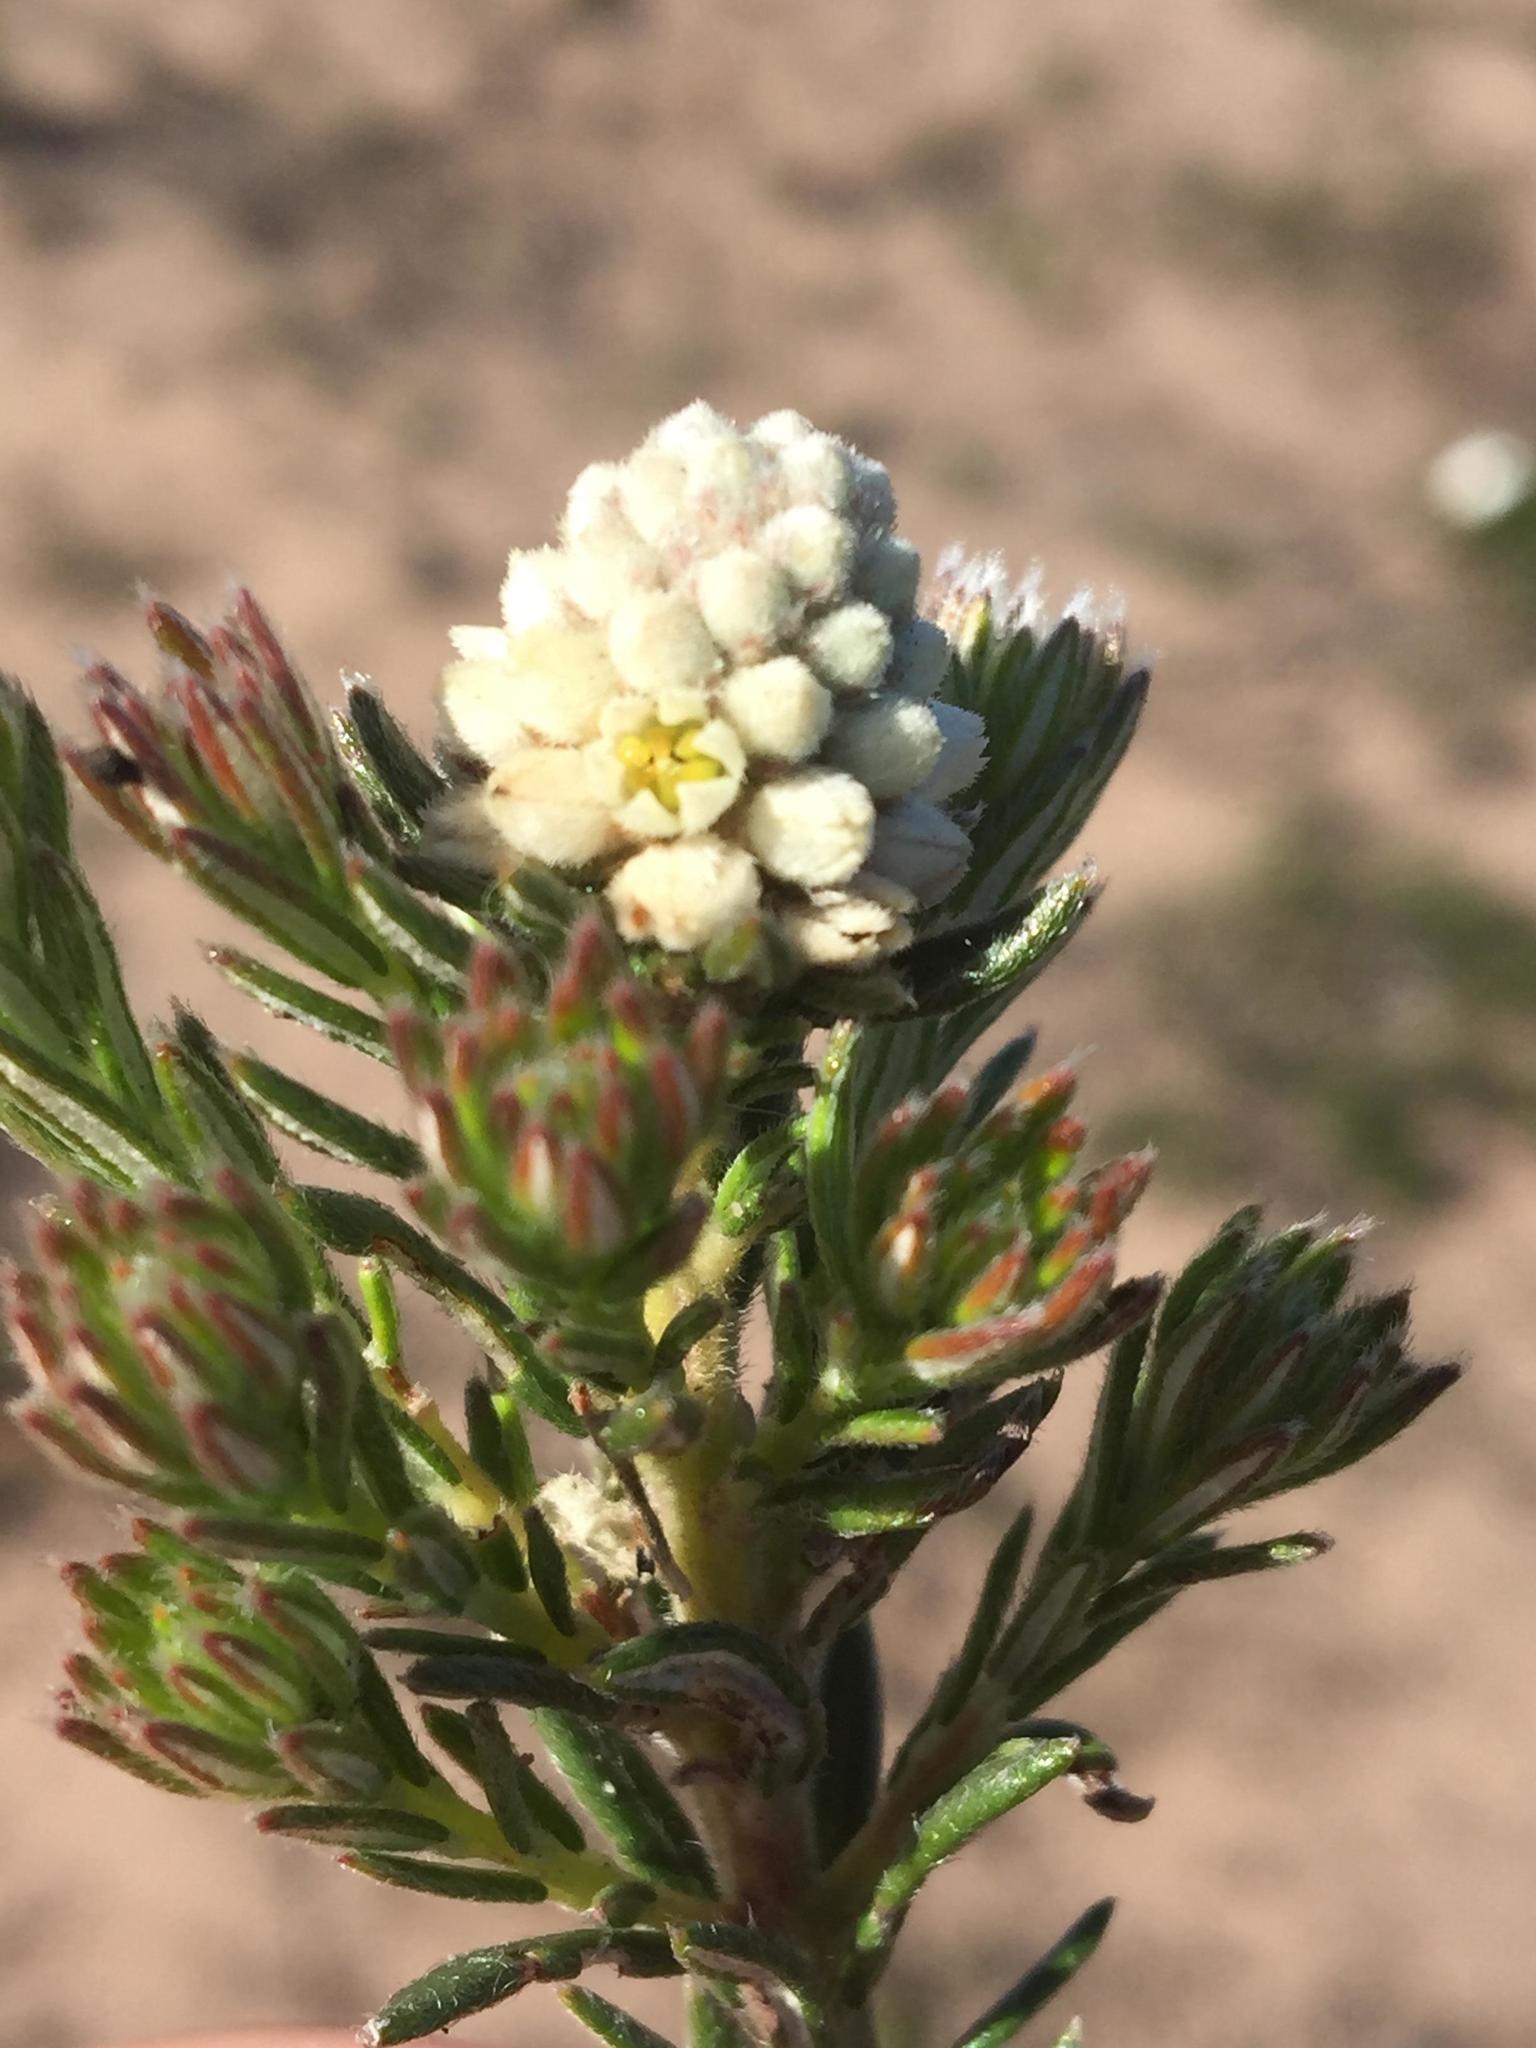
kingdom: Plantae
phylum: Tracheophyta
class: Magnoliopsida
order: Rosales
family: Rhamnaceae
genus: Phylica
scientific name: Phylica imberbis
